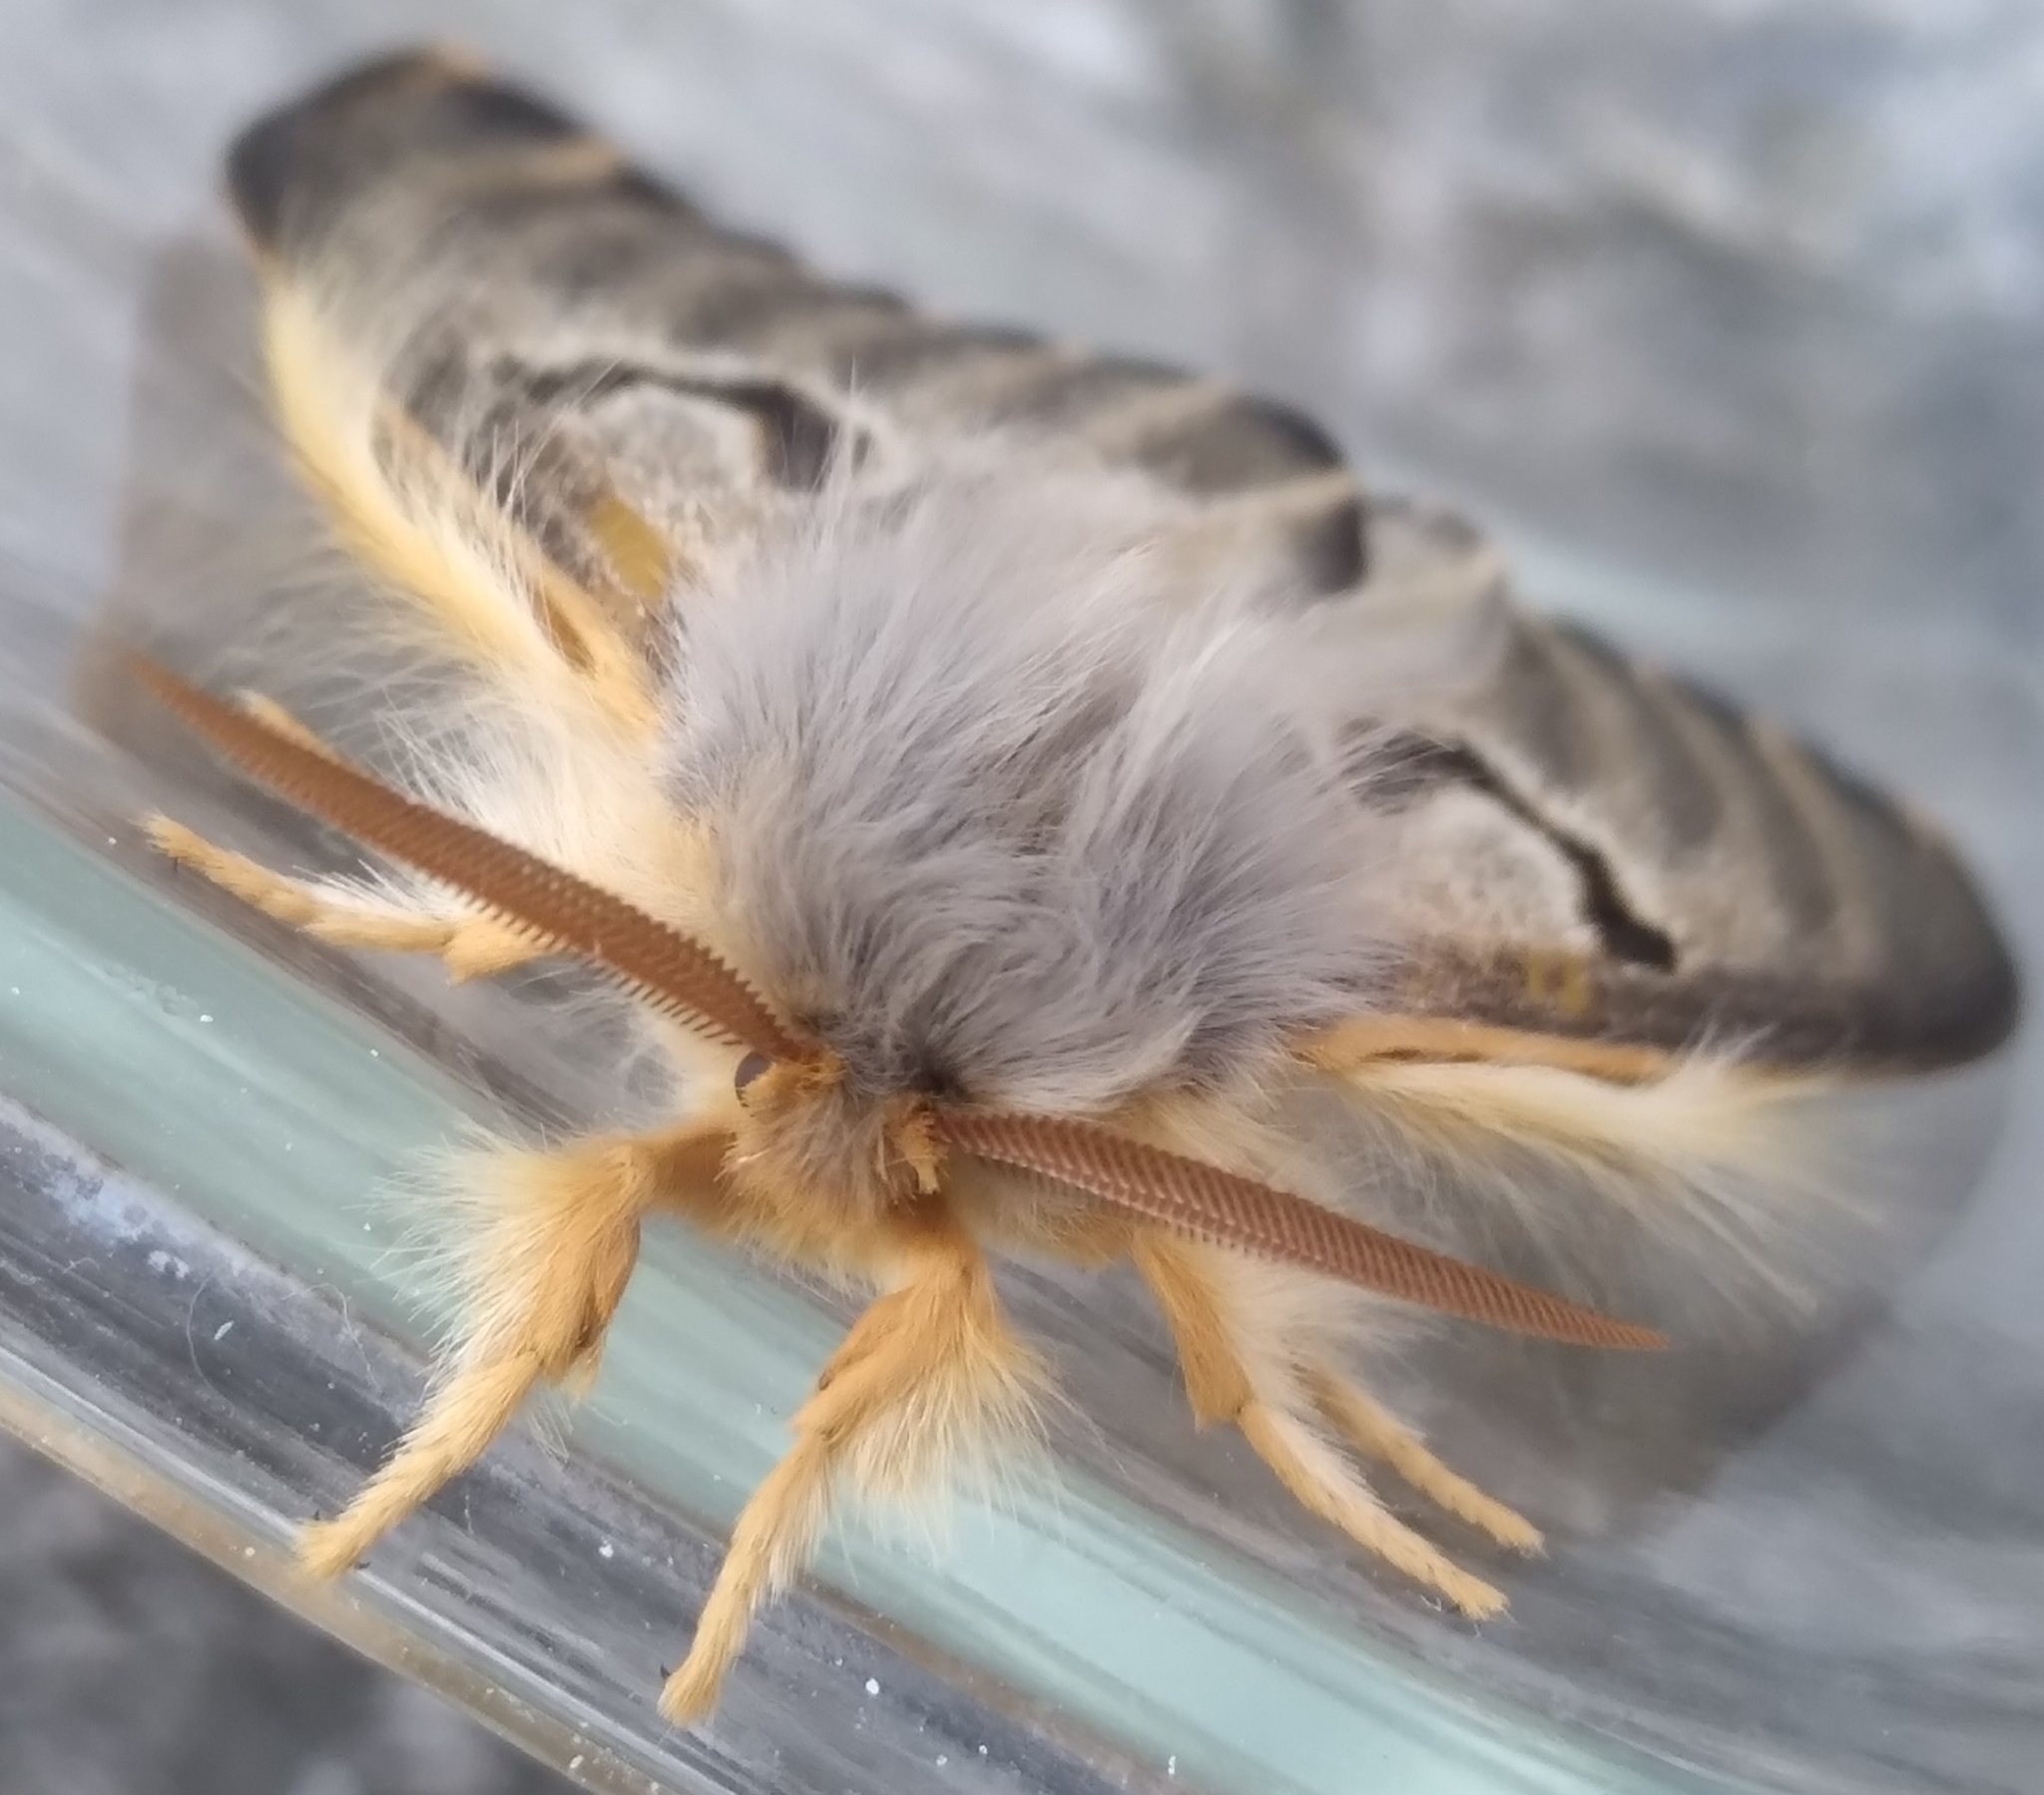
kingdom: Animalia
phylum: Arthropoda
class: Insecta
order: Lepidoptera
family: Saturniidae
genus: Heliconisa
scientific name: Heliconisa pagenstecheri
